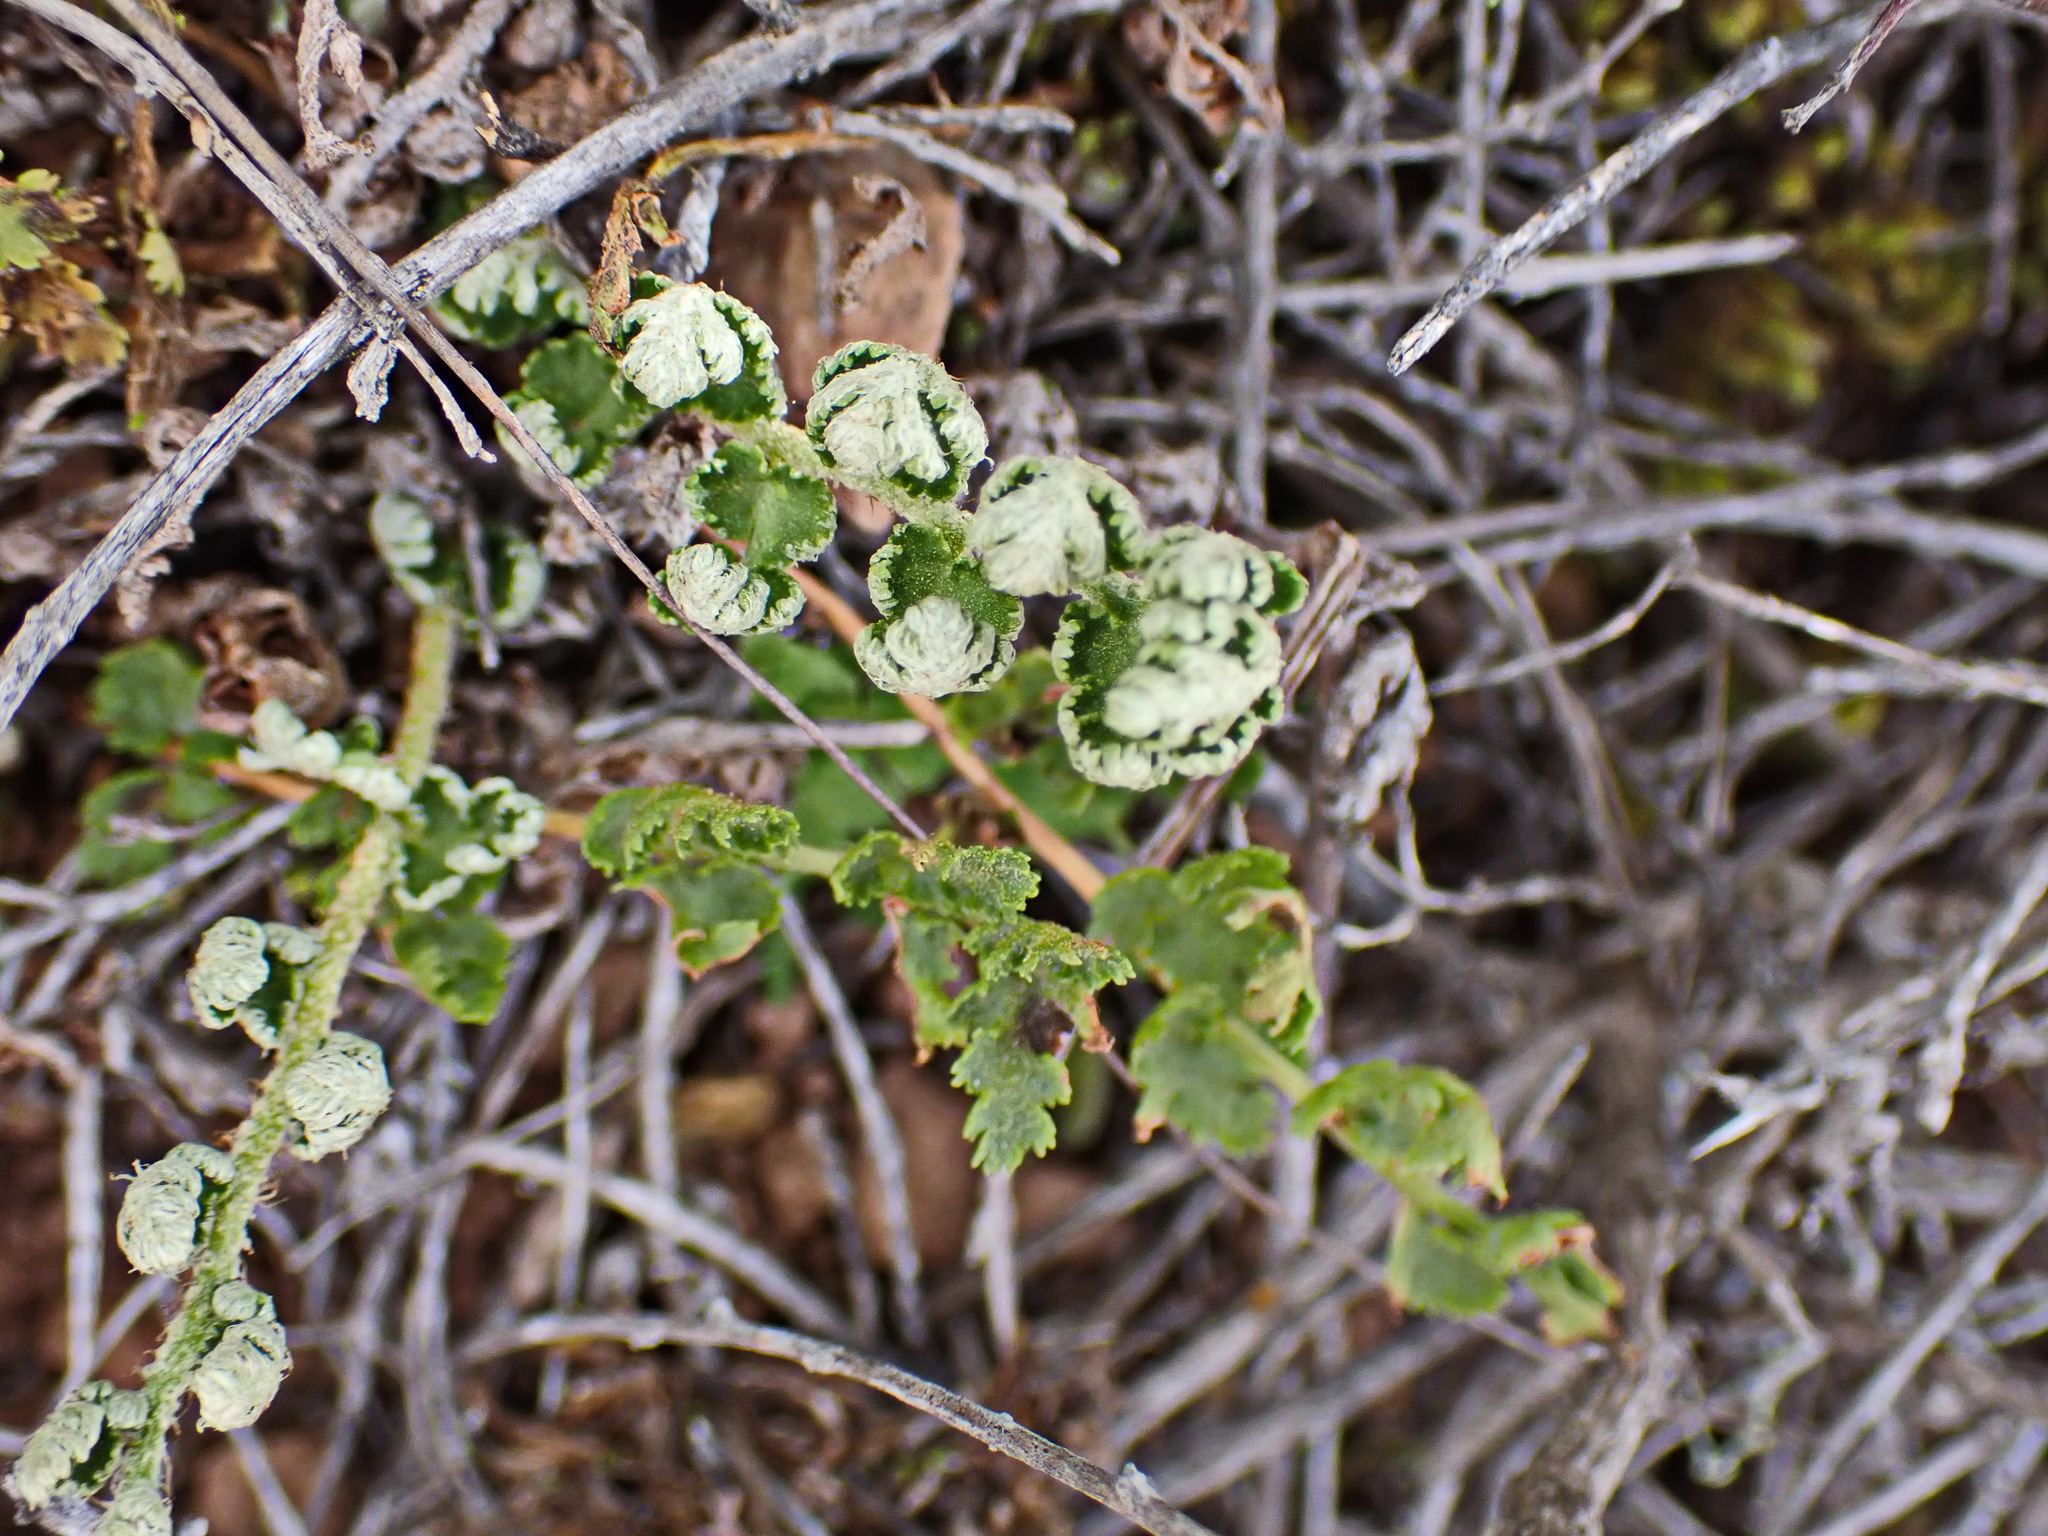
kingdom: Plantae
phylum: Tracheophyta
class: Polypodiopsida
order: Schizaeales
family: Anemiaceae
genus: Anemia
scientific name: Anemia caffrorum
